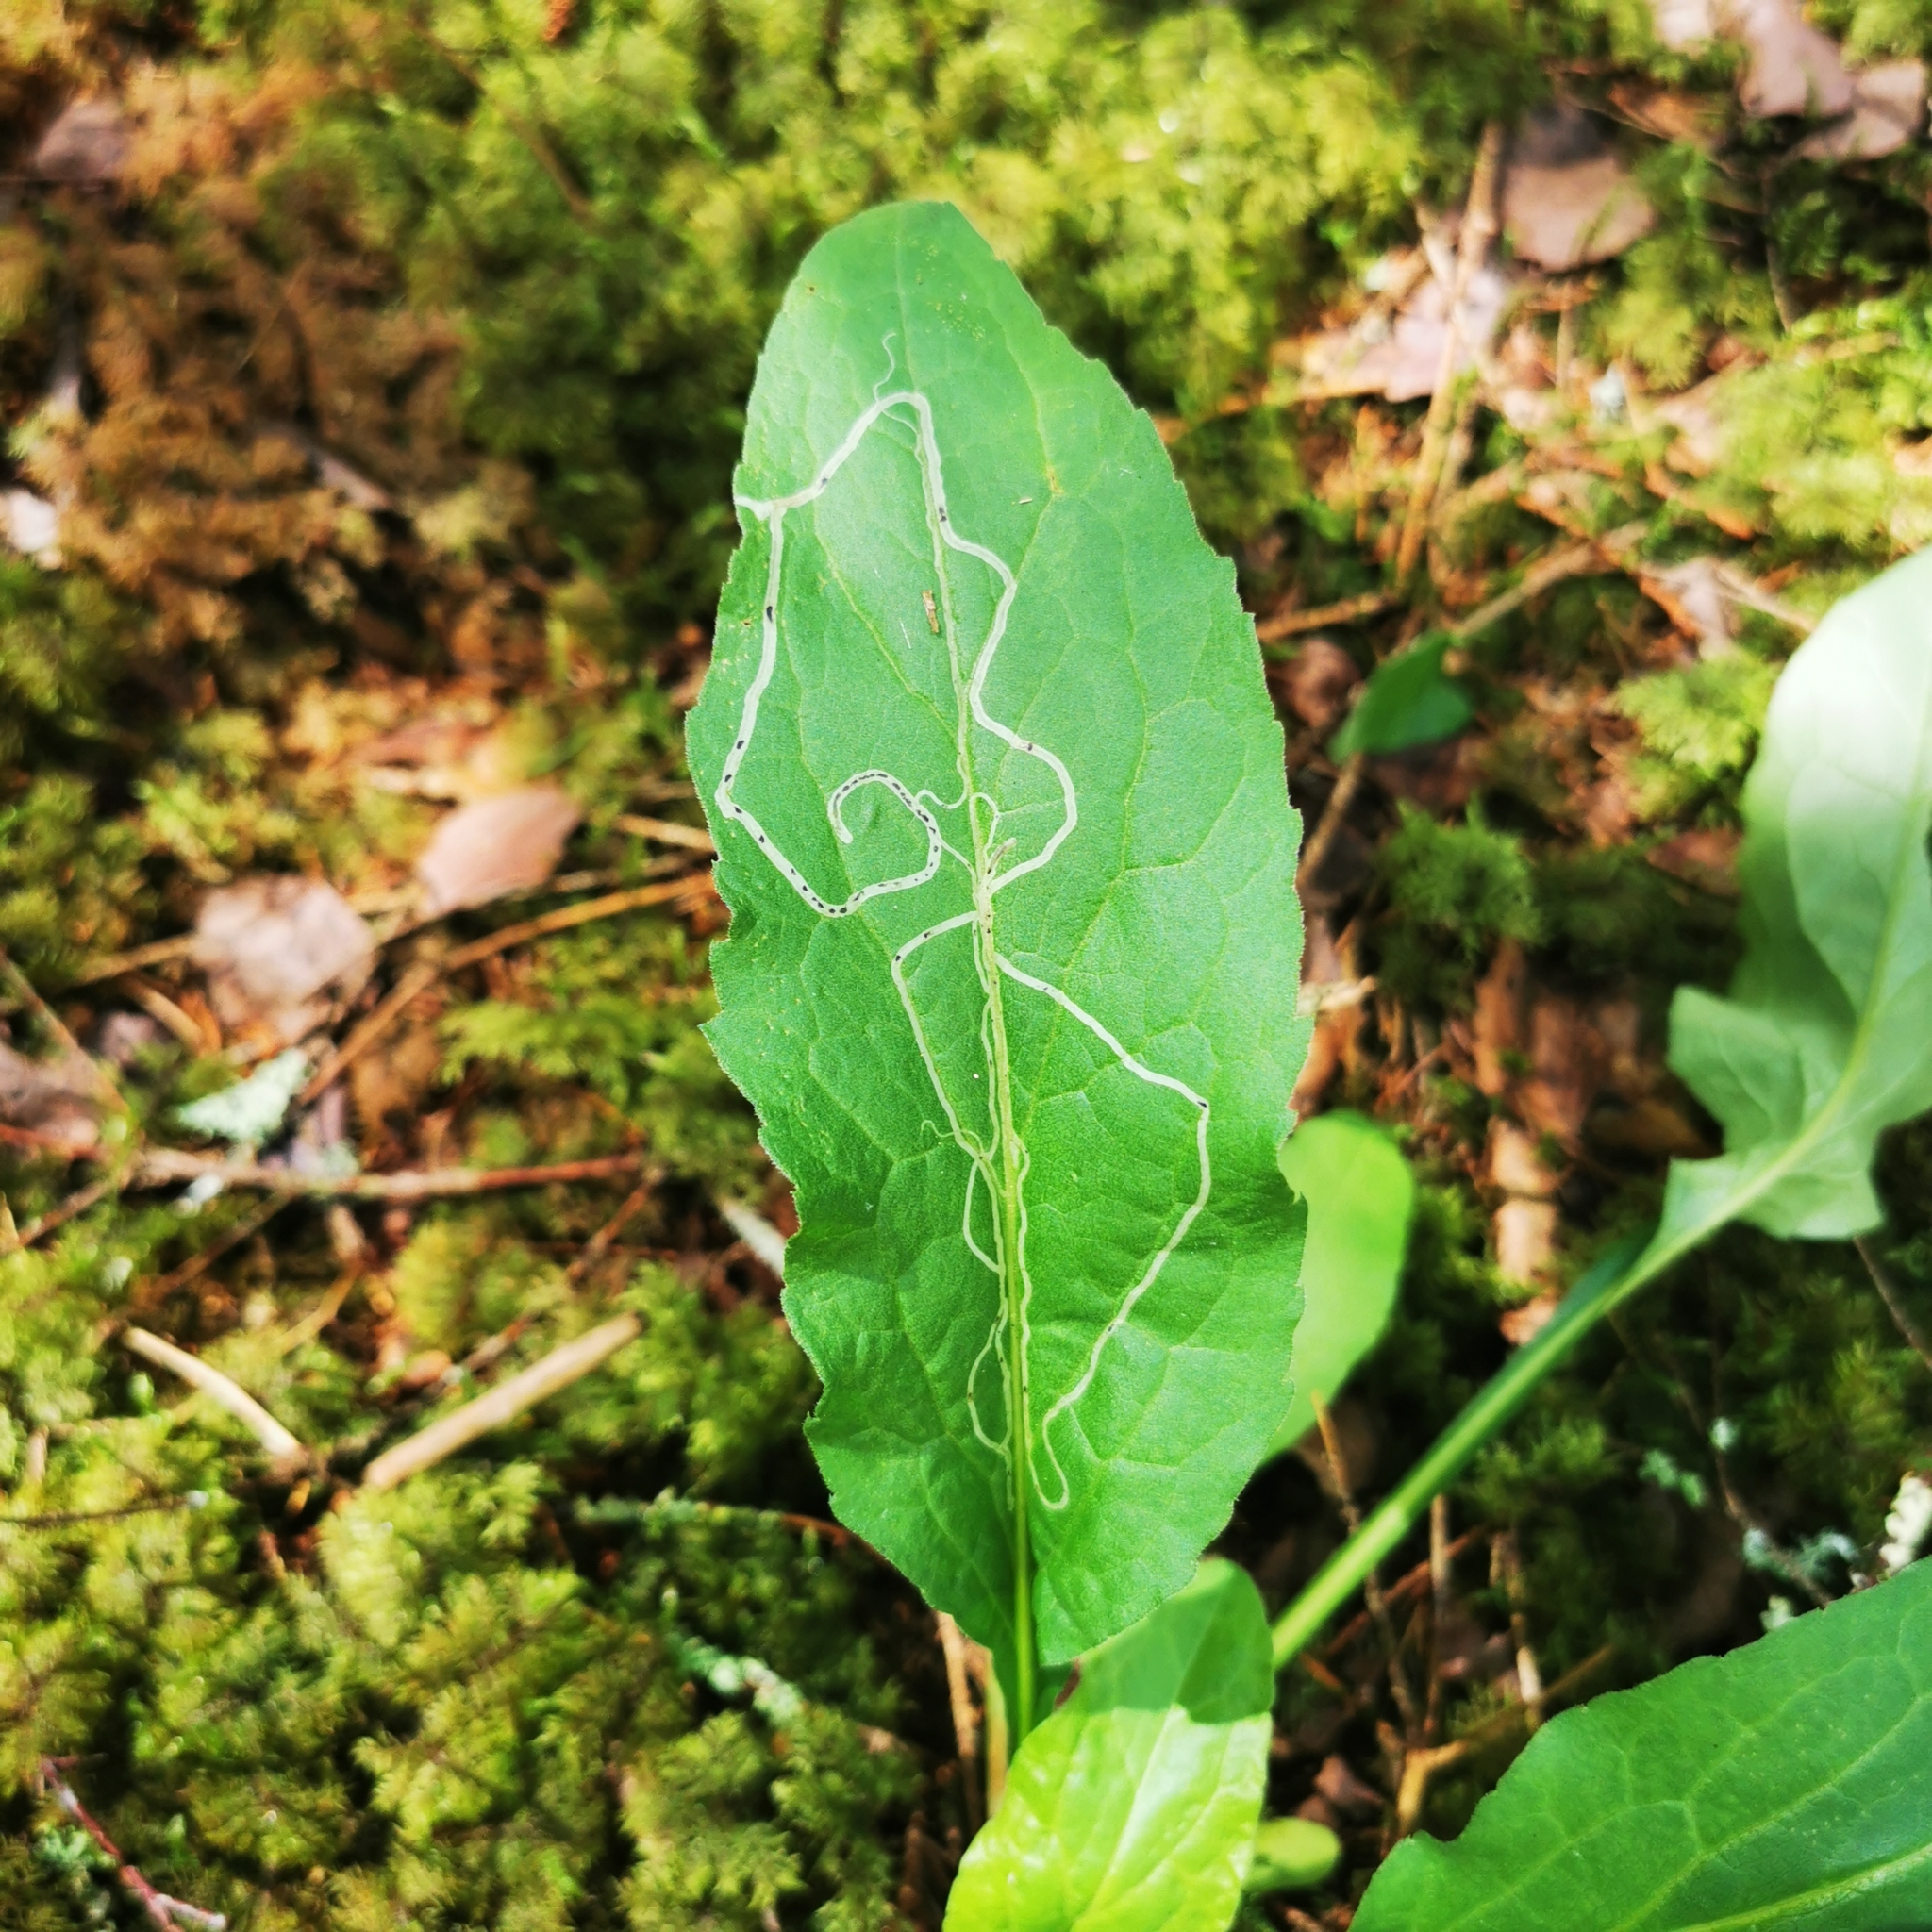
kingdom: Animalia
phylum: Arthropoda
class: Insecta
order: Diptera
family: Agromyzidae
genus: Ophiomyia
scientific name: Ophiomyia maura
